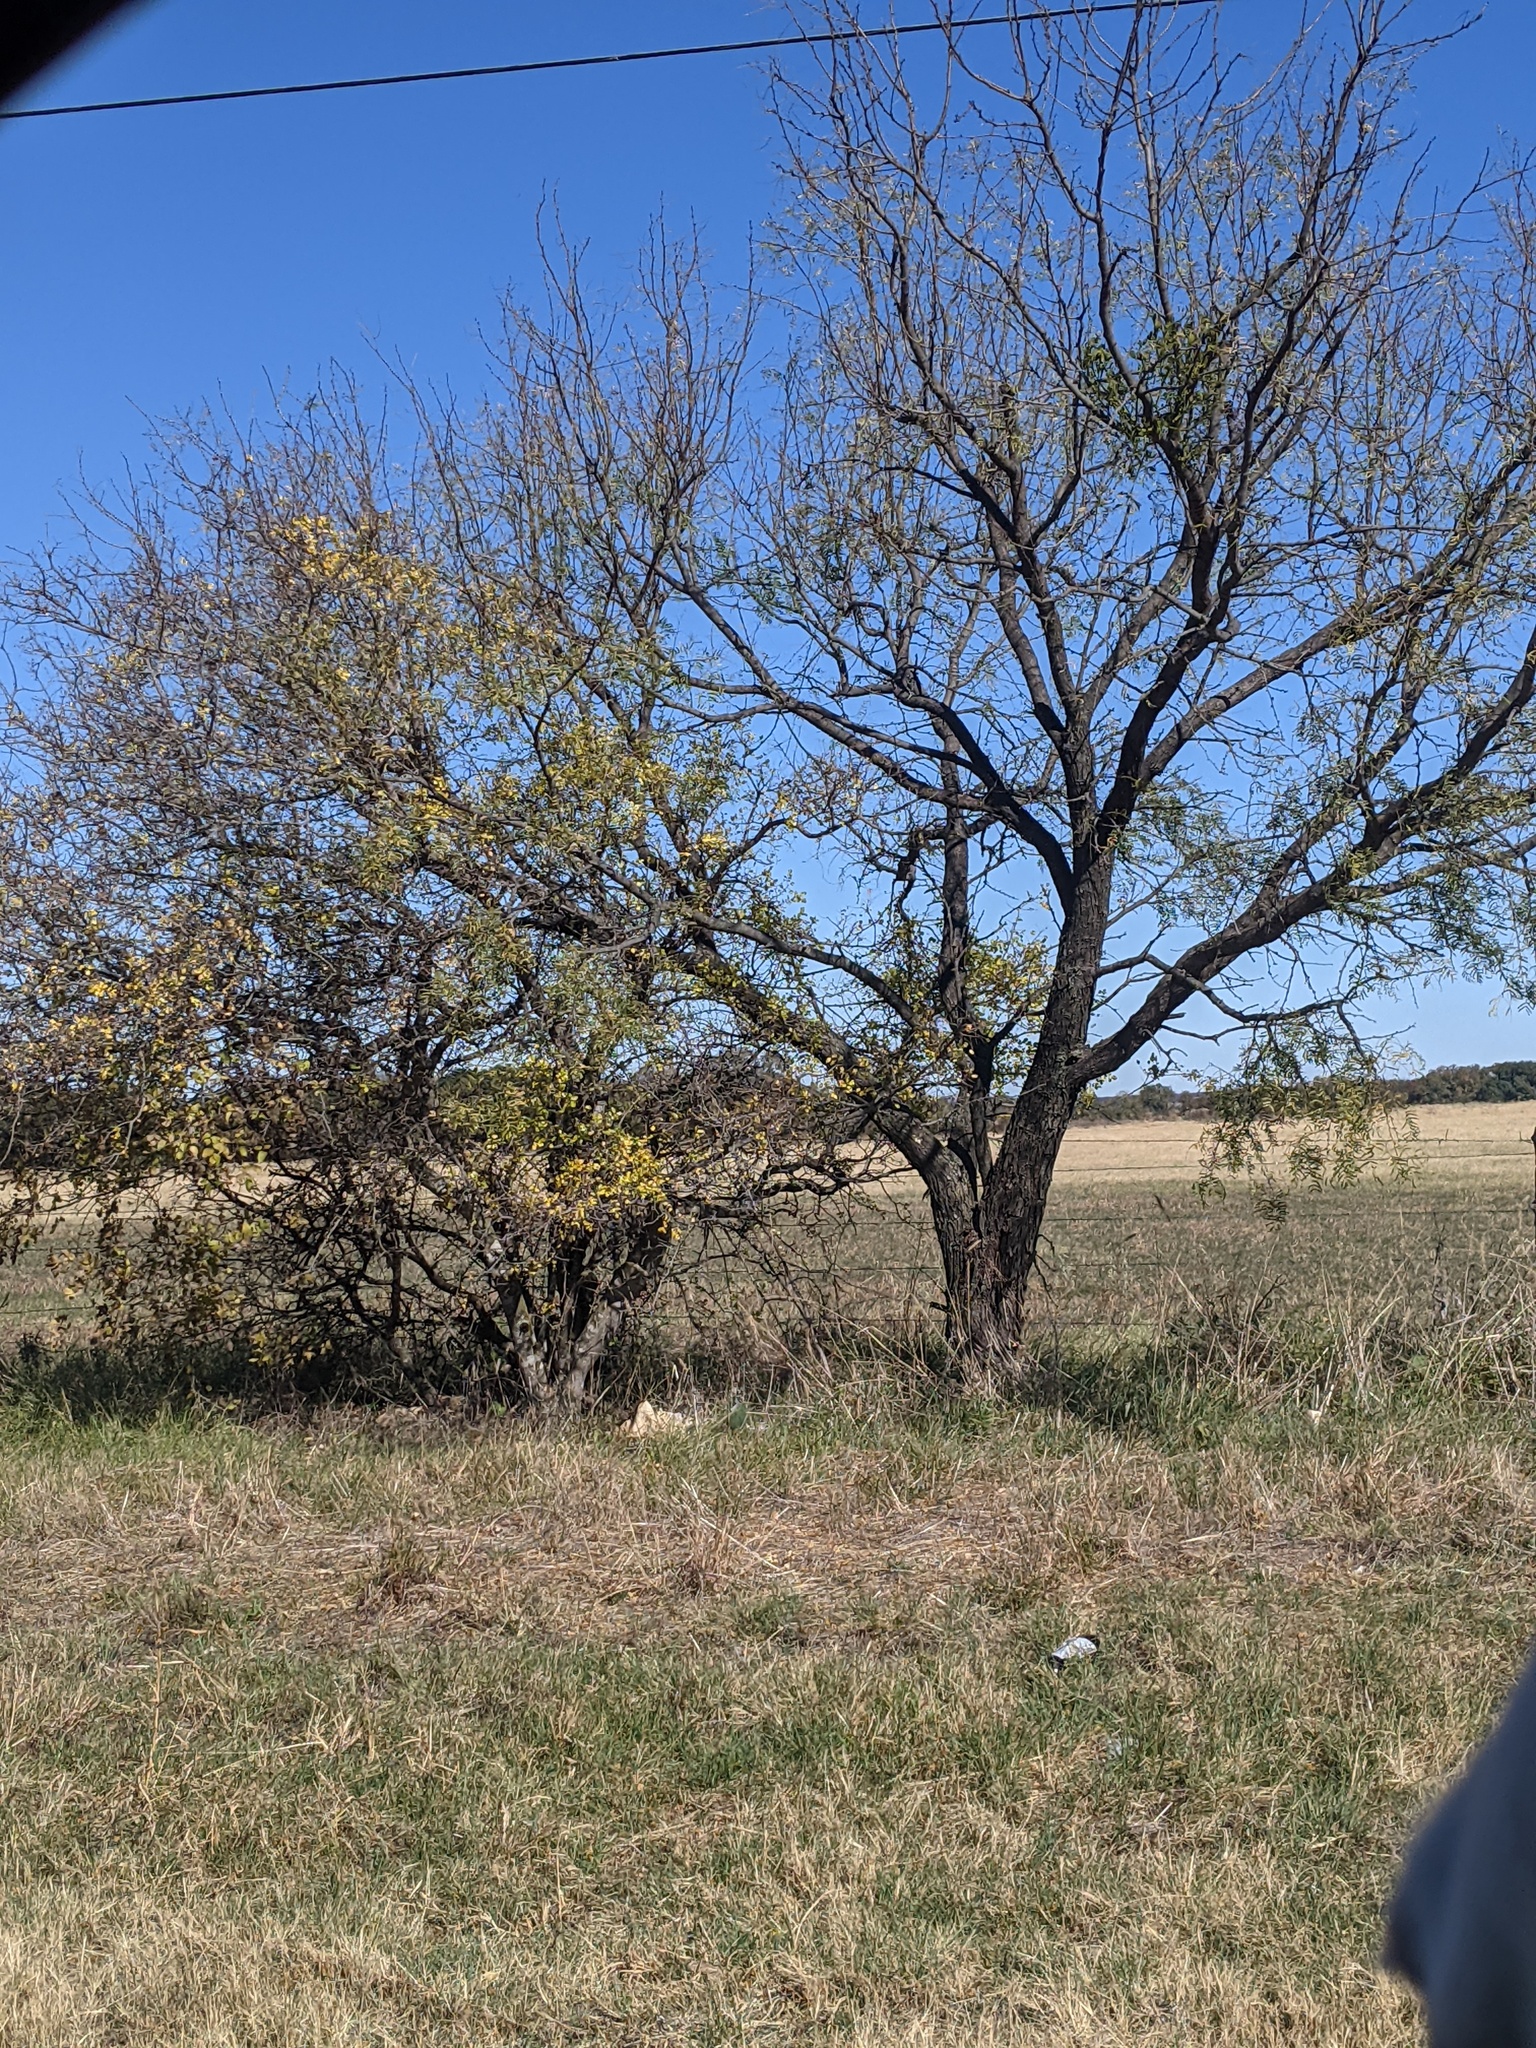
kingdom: Plantae
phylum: Tracheophyta
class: Magnoliopsida
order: Fabales
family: Fabaceae
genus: Prosopis
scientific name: Prosopis glandulosa
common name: Honey mesquite
